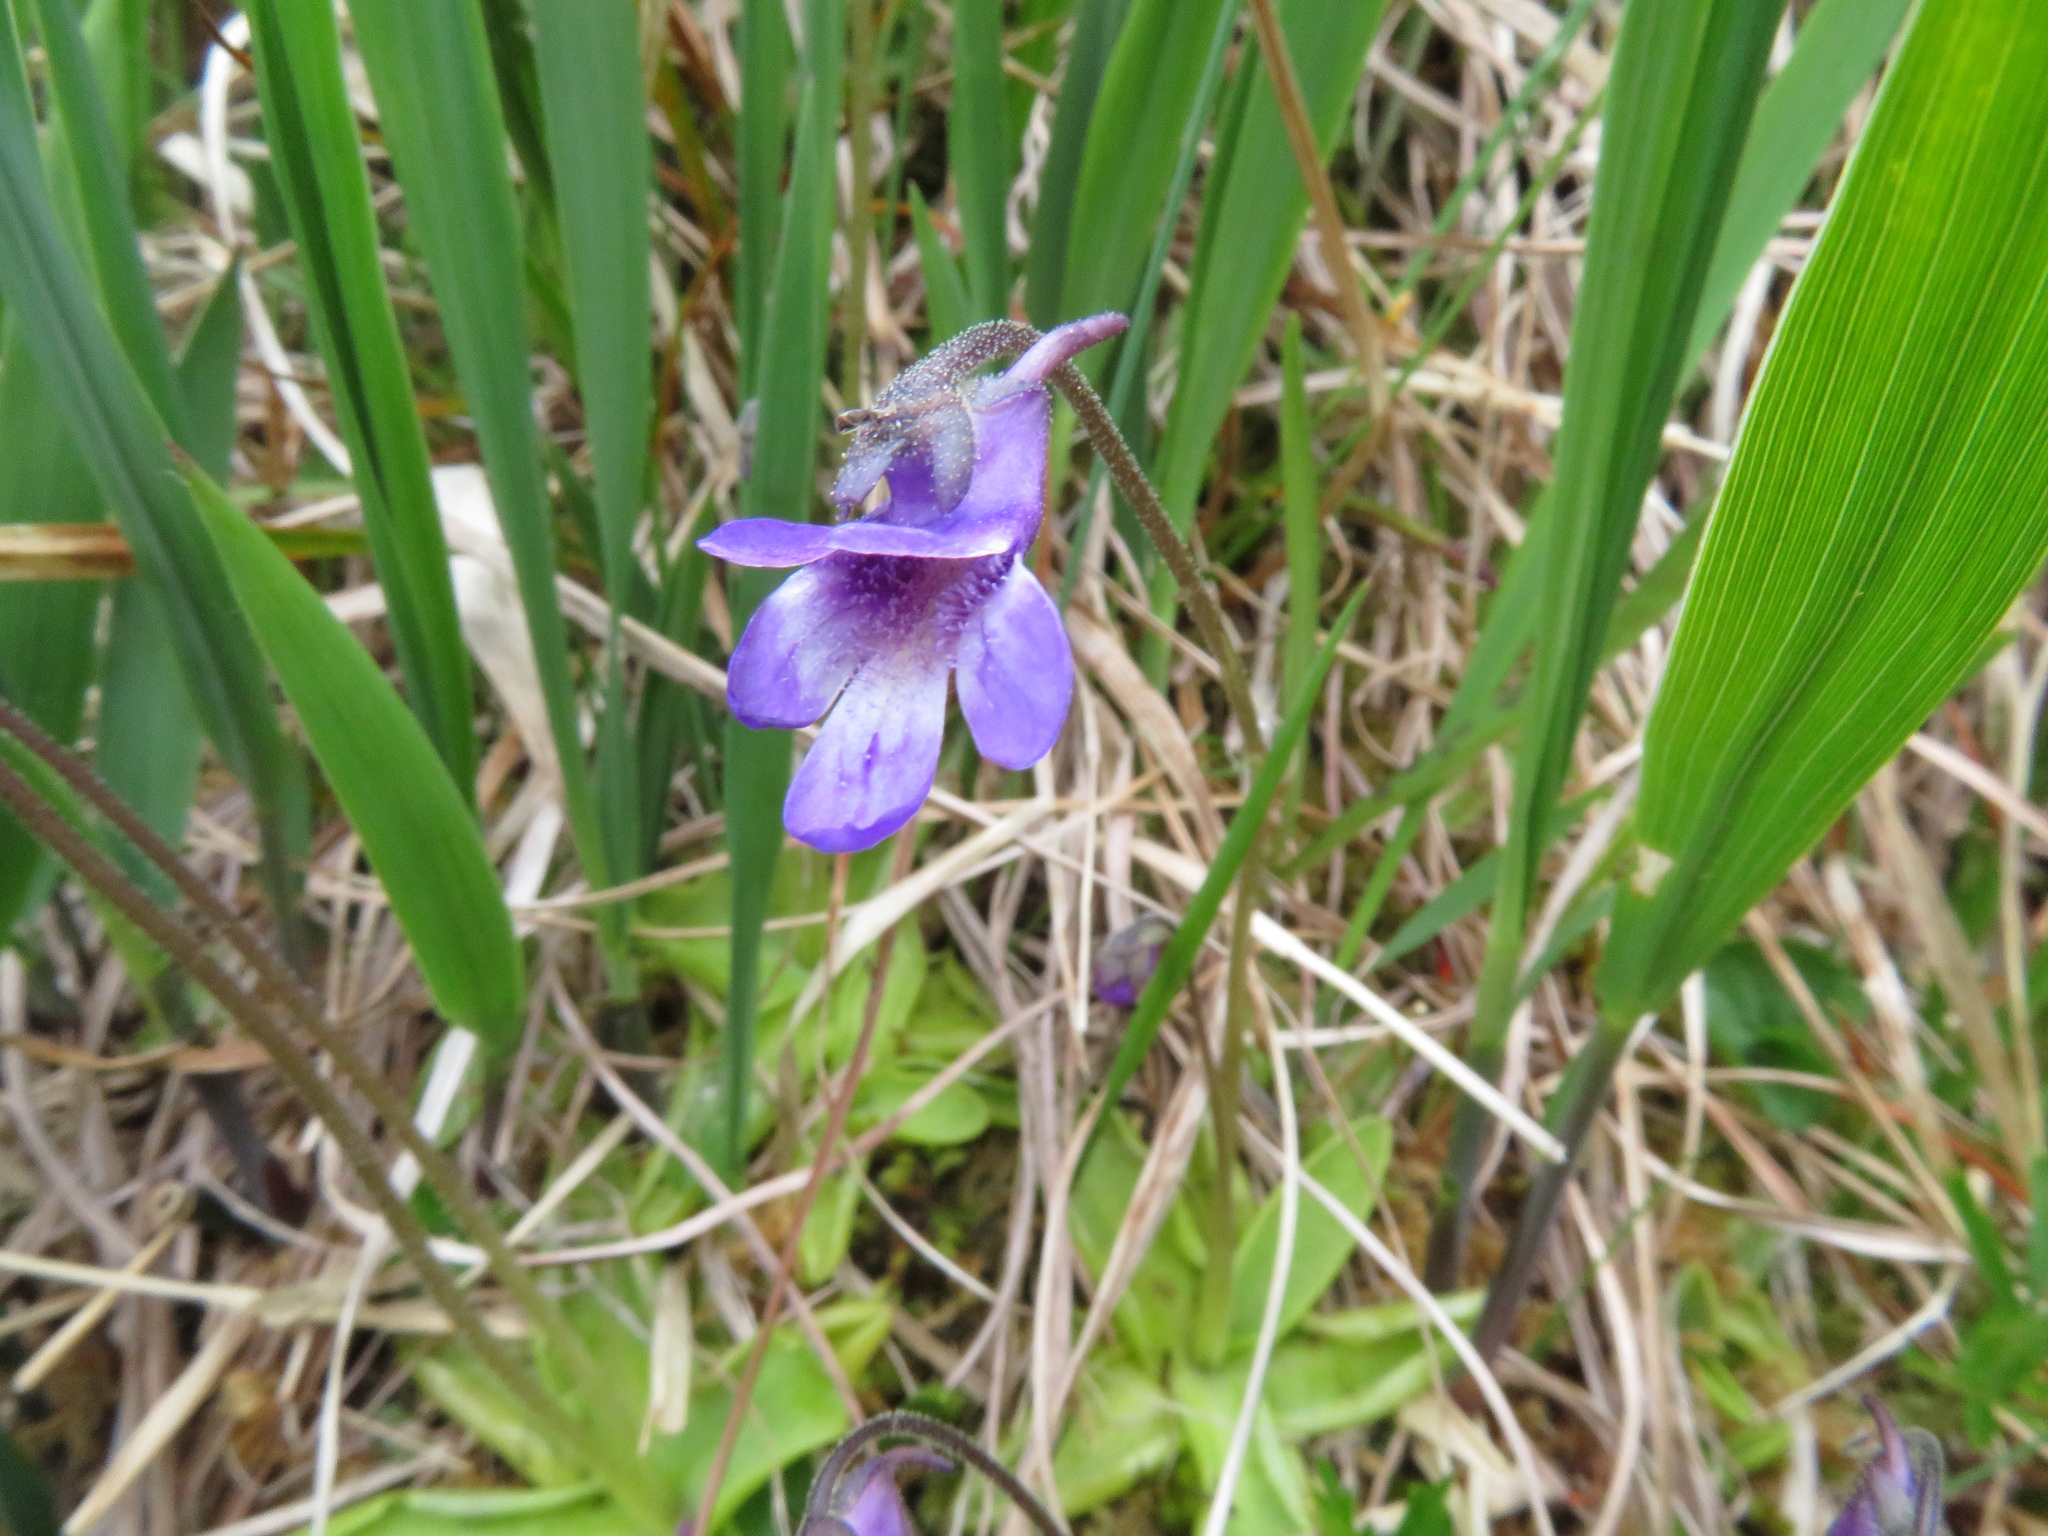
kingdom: Plantae
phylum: Tracheophyta
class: Magnoliopsida
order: Lamiales
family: Lentibulariaceae
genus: Pinguicula
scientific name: Pinguicula vulgaris
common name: Common butterwort
